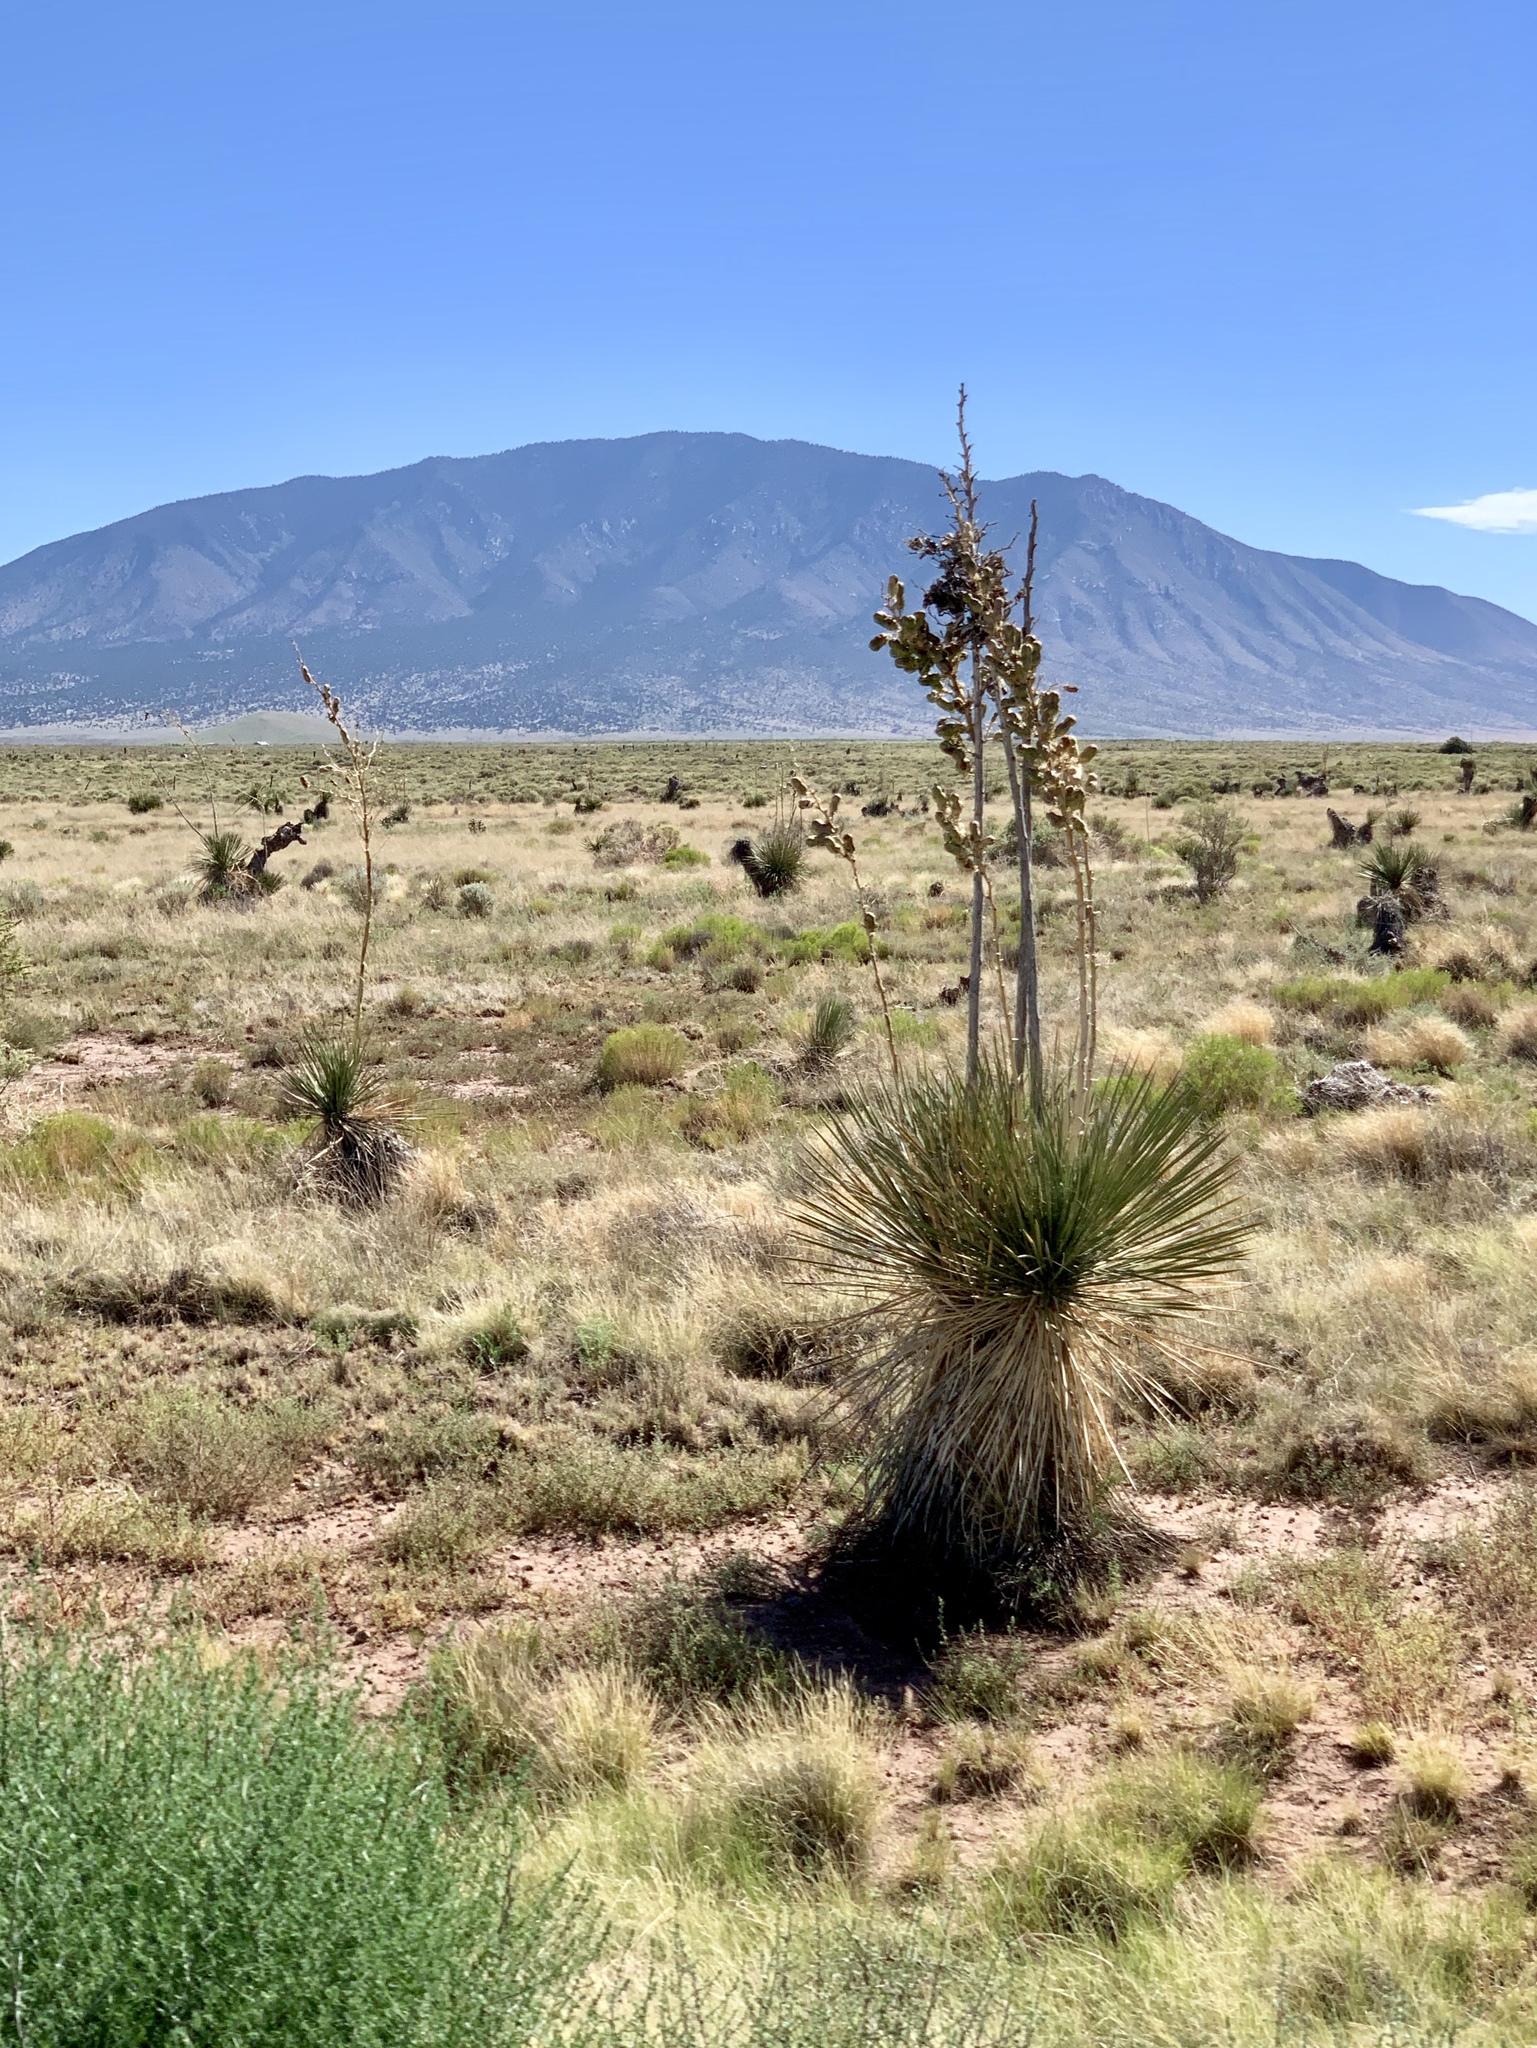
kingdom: Plantae
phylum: Tracheophyta
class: Liliopsida
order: Asparagales
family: Asparagaceae
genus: Yucca
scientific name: Yucca elata
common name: Palmella
